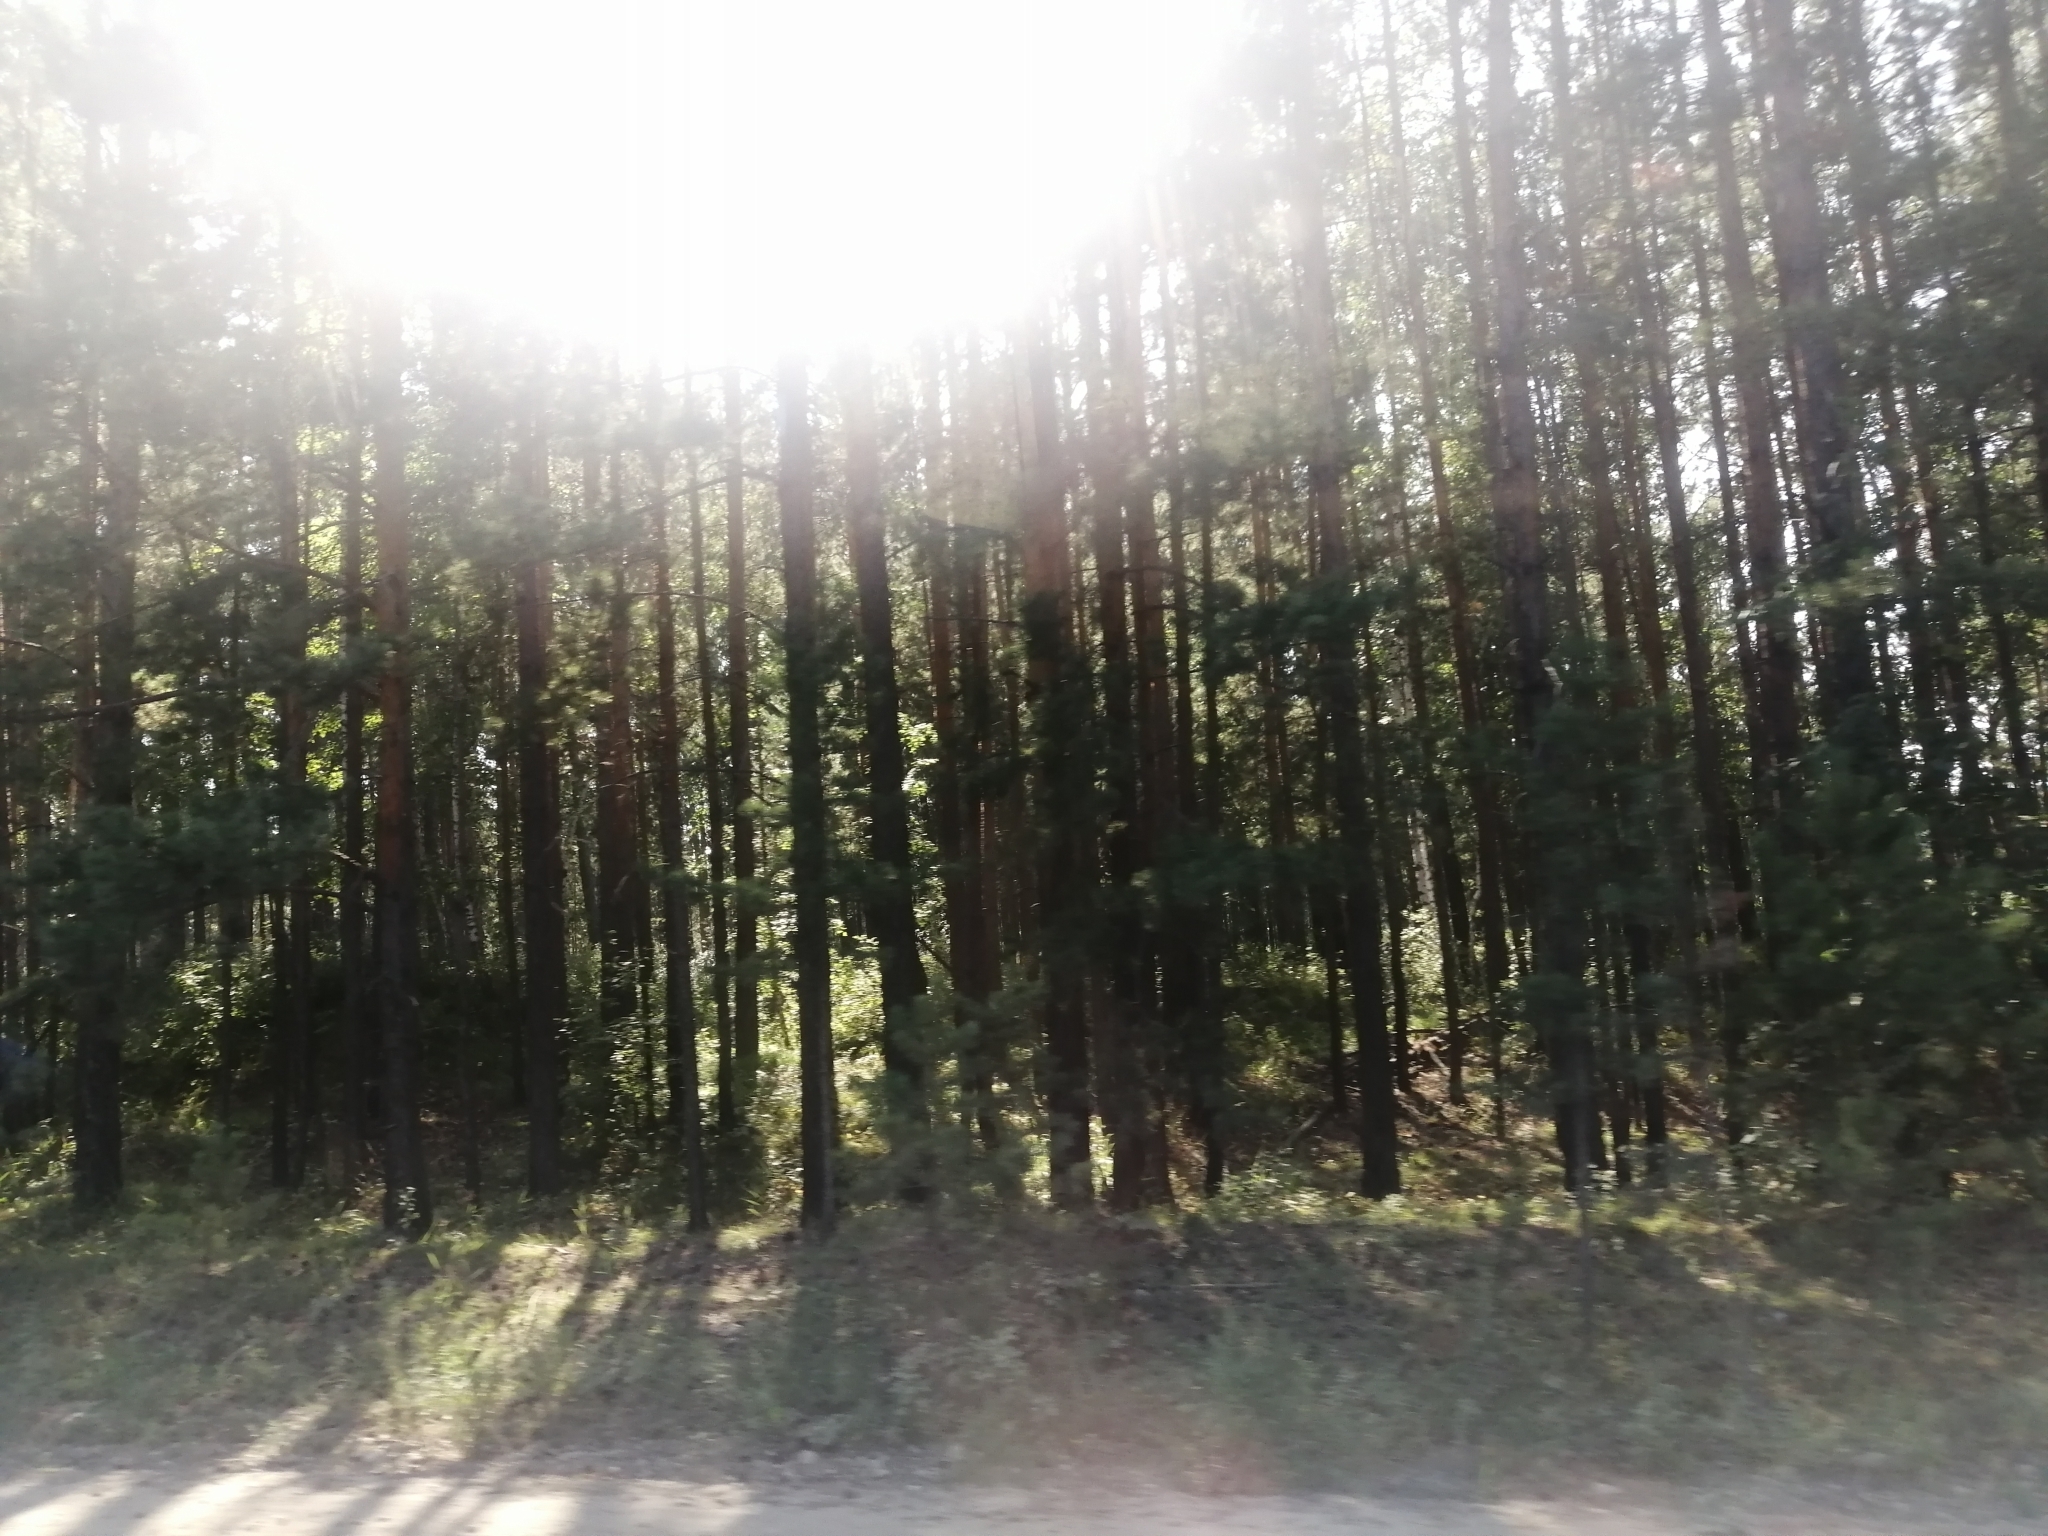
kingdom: Plantae
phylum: Tracheophyta
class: Pinopsida
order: Pinales
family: Pinaceae
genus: Pinus
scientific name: Pinus sylvestris
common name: Scots pine
